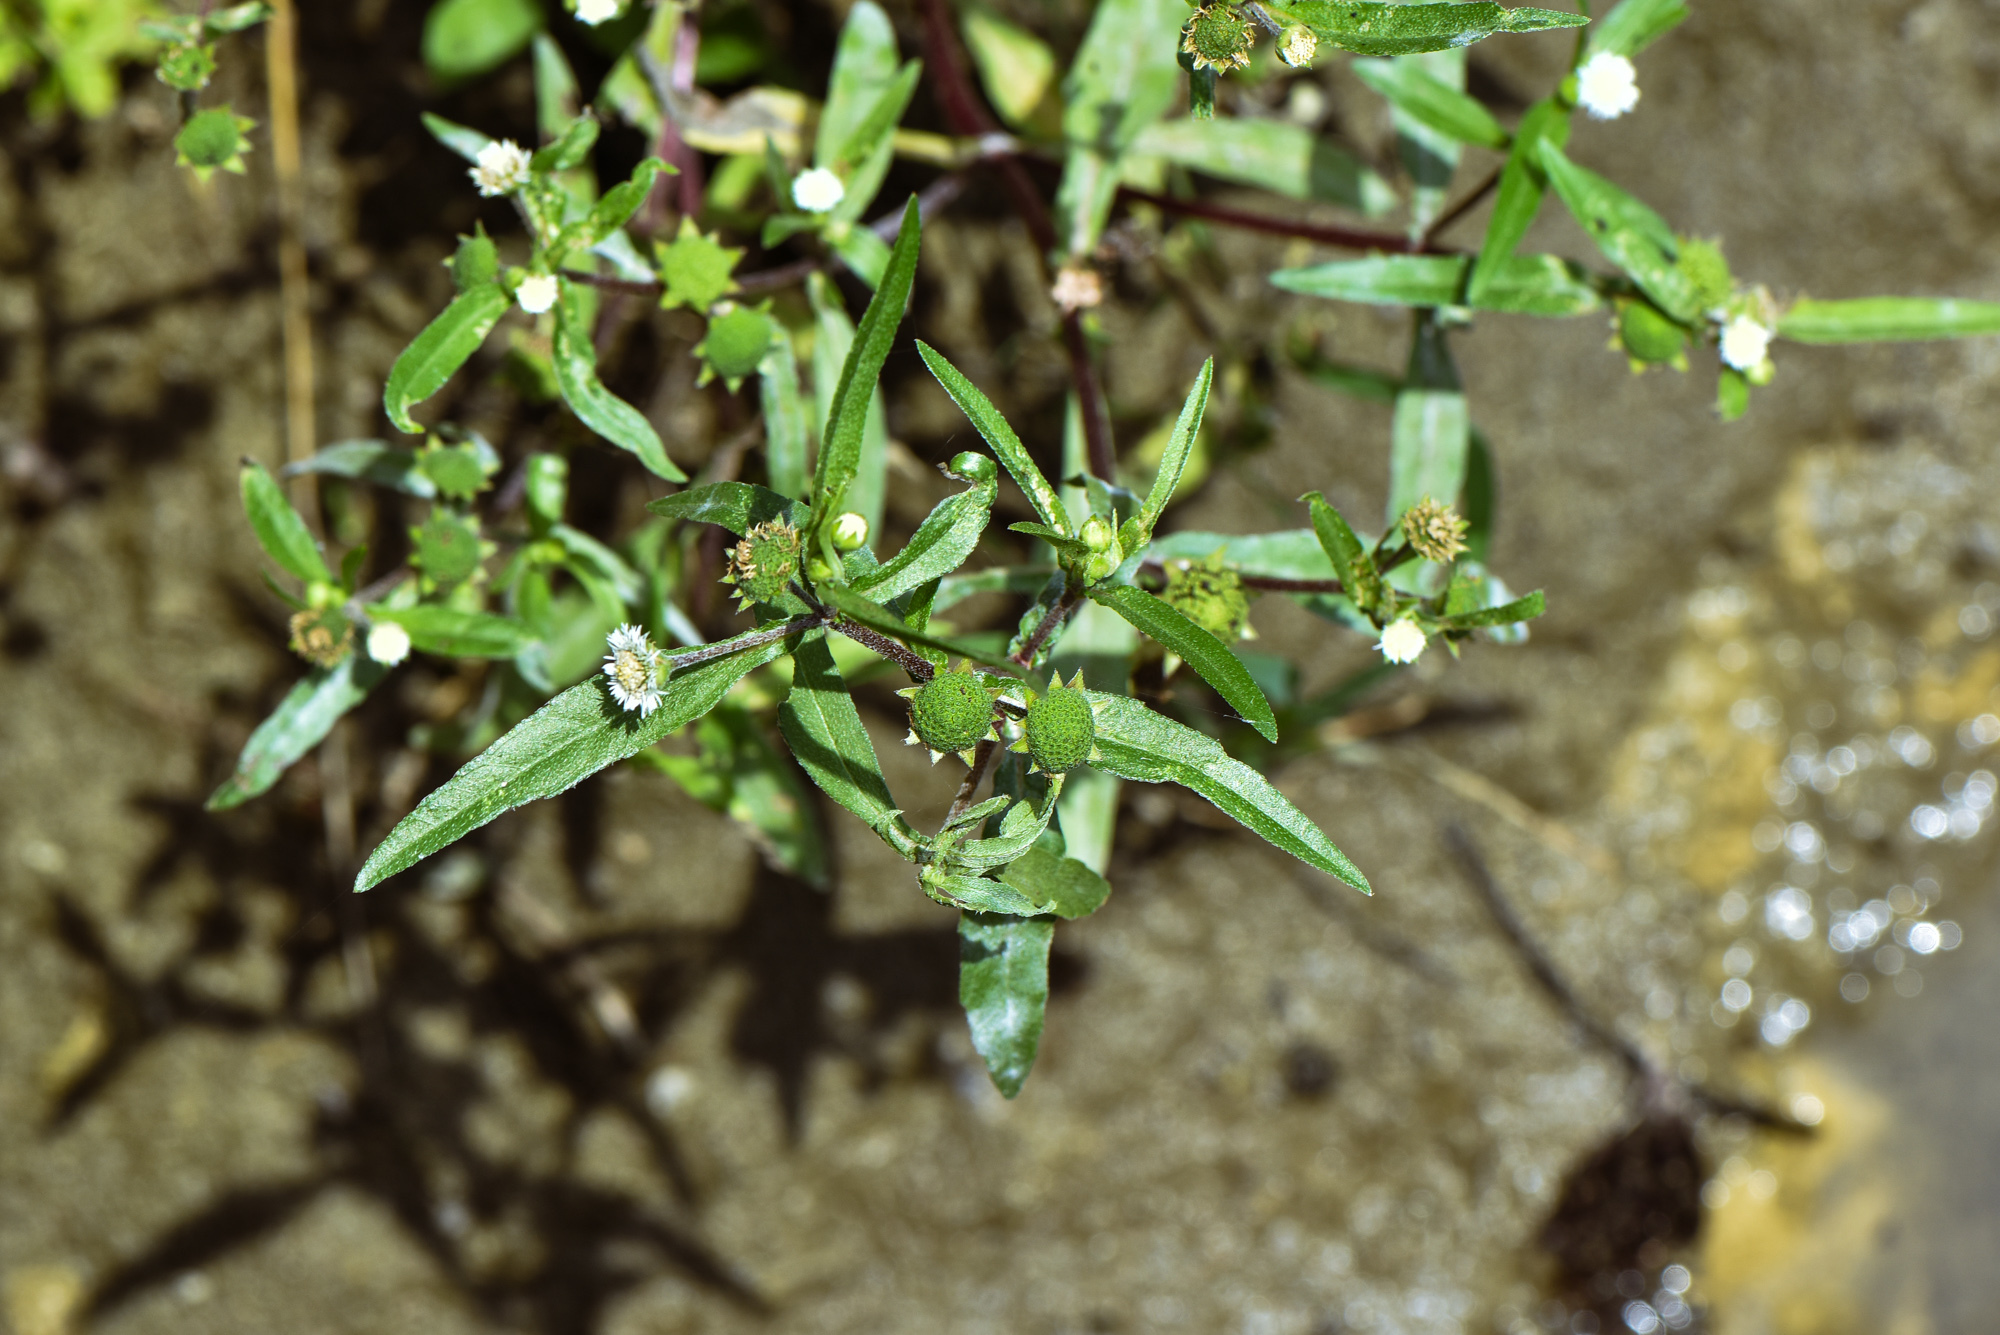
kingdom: Plantae
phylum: Tracheophyta
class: Magnoliopsida
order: Asterales
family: Asteraceae
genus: Eclipta
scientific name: Eclipta prostrata
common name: False daisy
